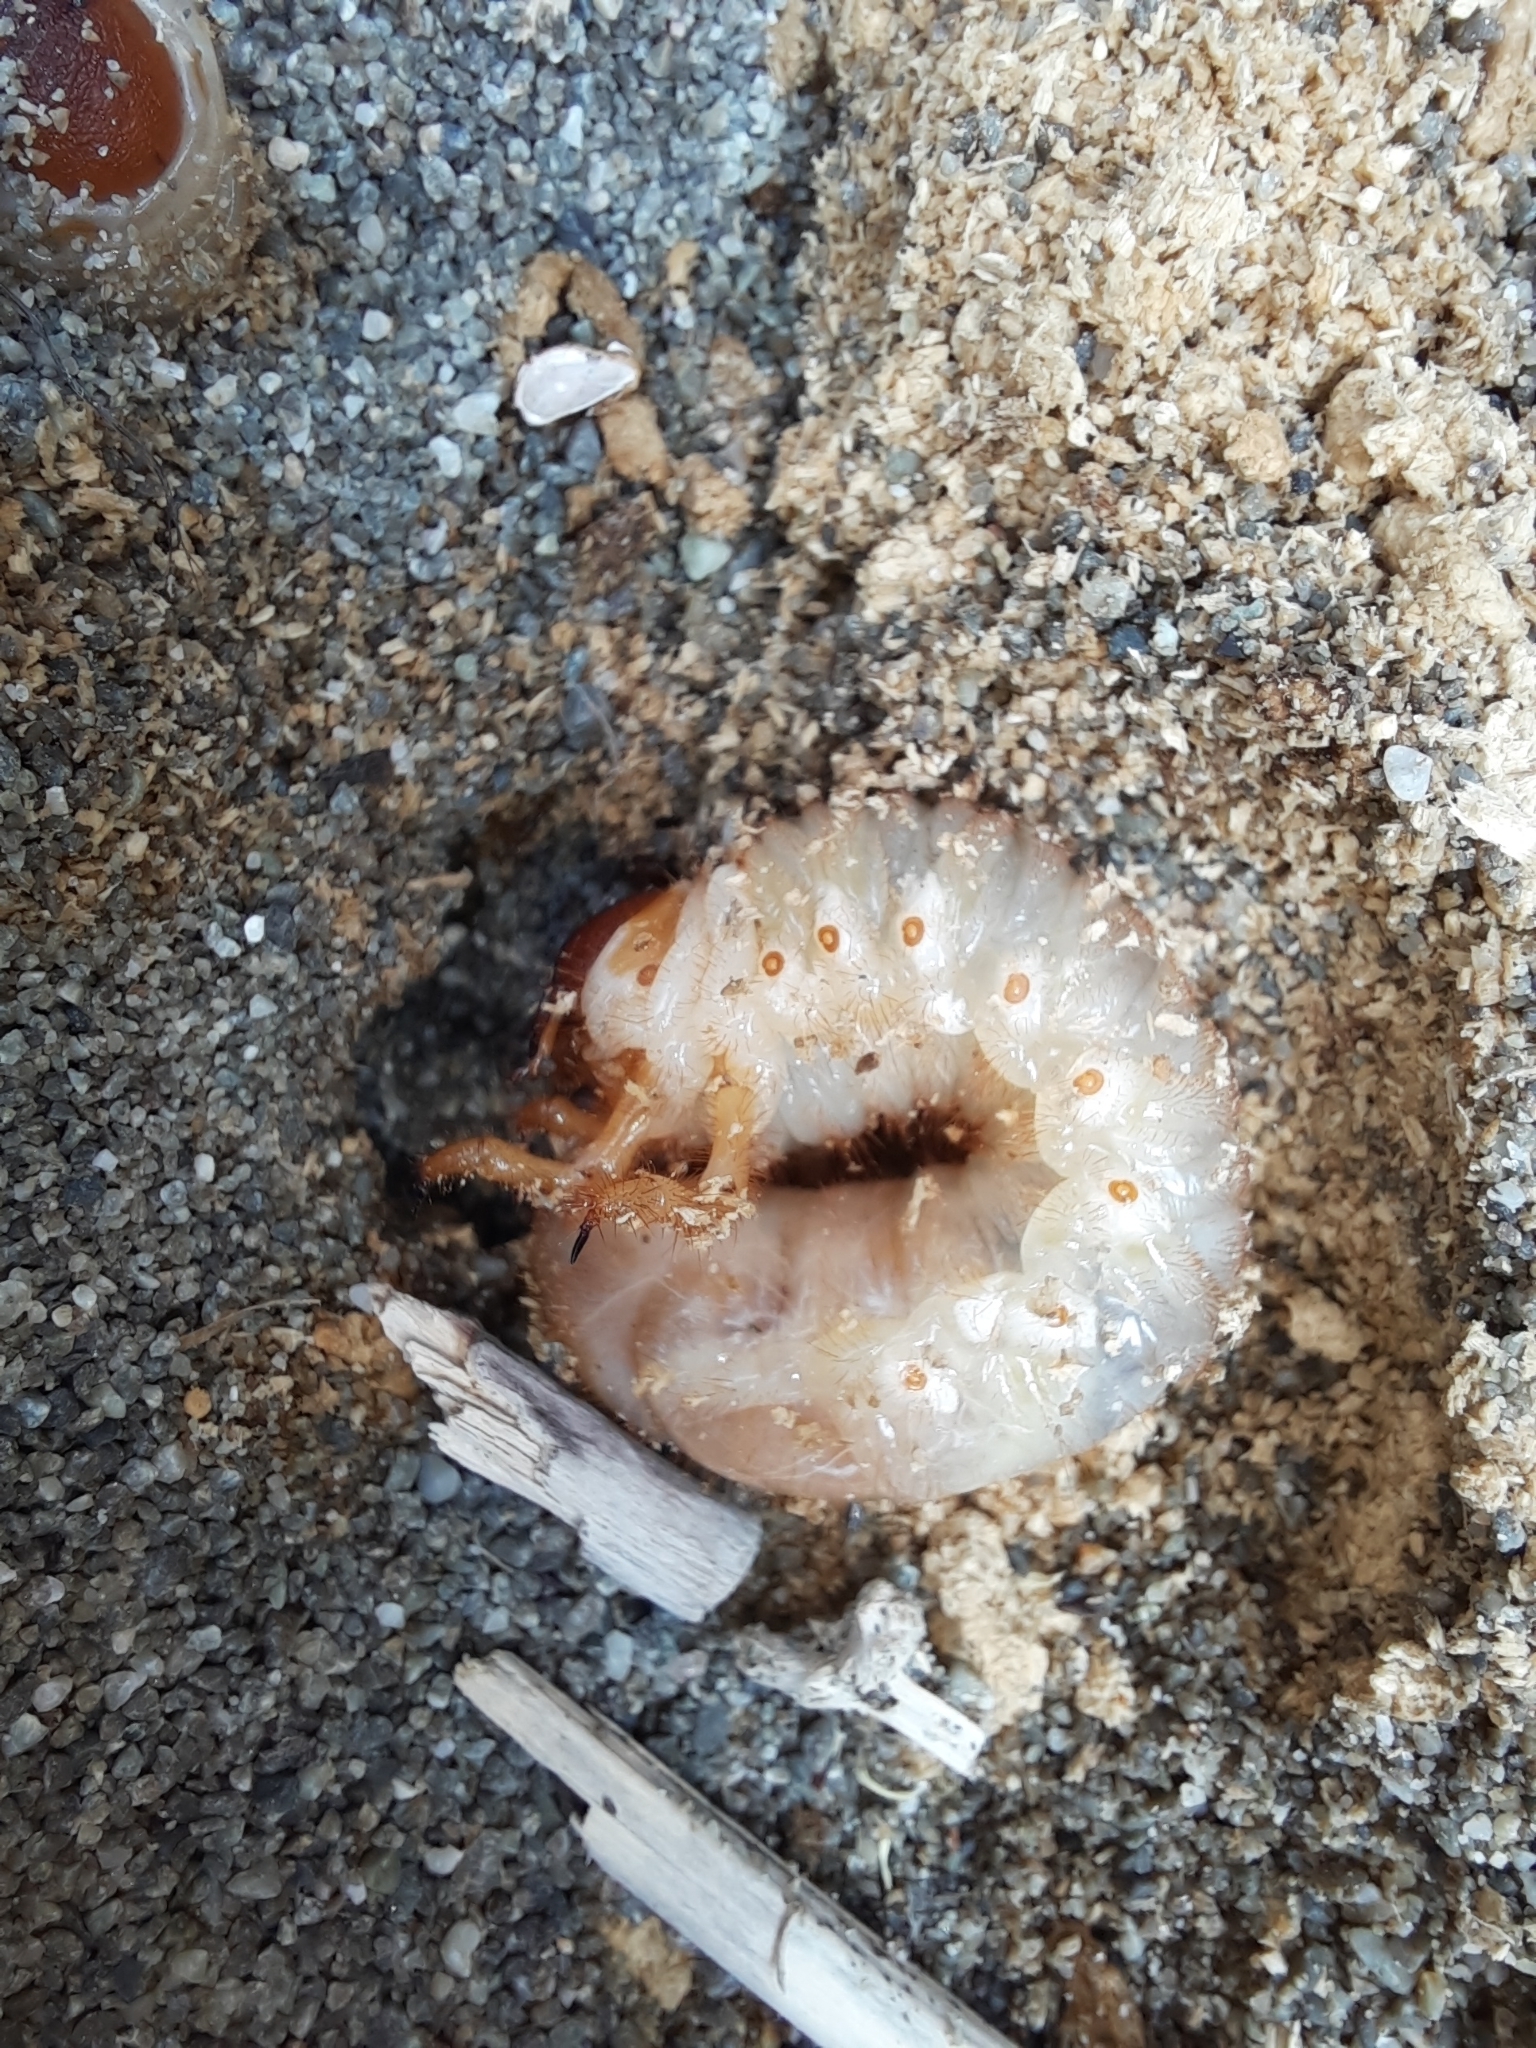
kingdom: Animalia
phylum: Arthropoda
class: Insecta
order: Coleoptera
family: Scarabaeidae
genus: Pericoptus
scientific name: Pericoptus truncatus
